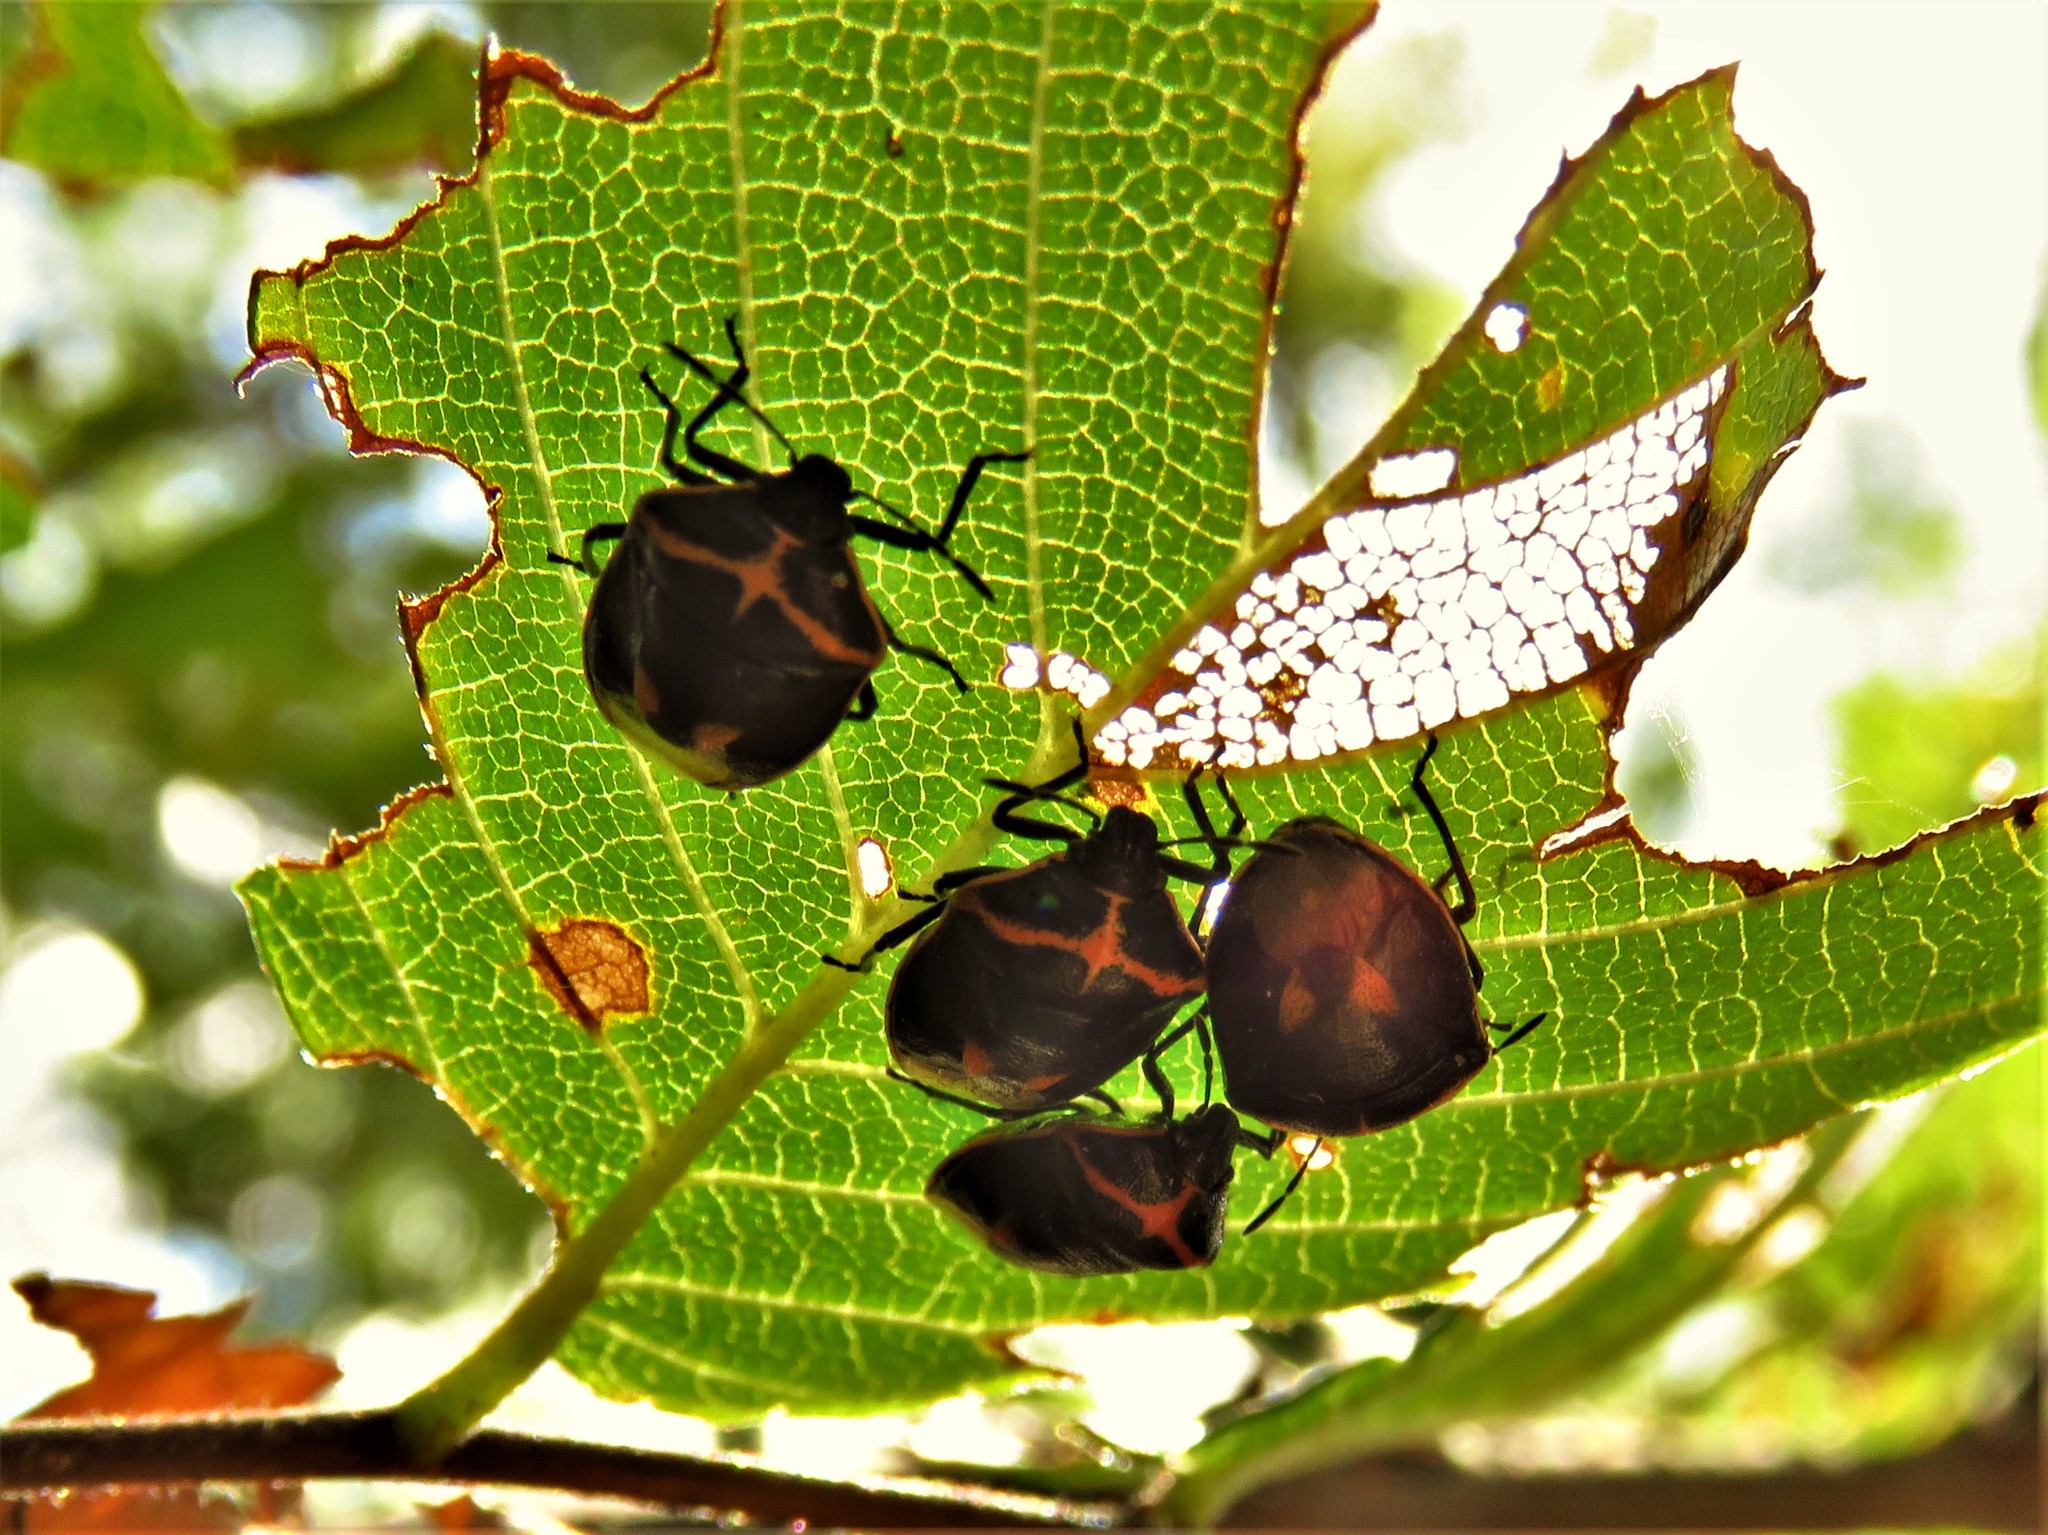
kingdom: Animalia
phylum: Arthropoda
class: Insecta
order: Hemiptera
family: Pentatomidae
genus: Cosmopepla
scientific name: Cosmopepla lintneriana
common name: Twice-stabbed stink bug
